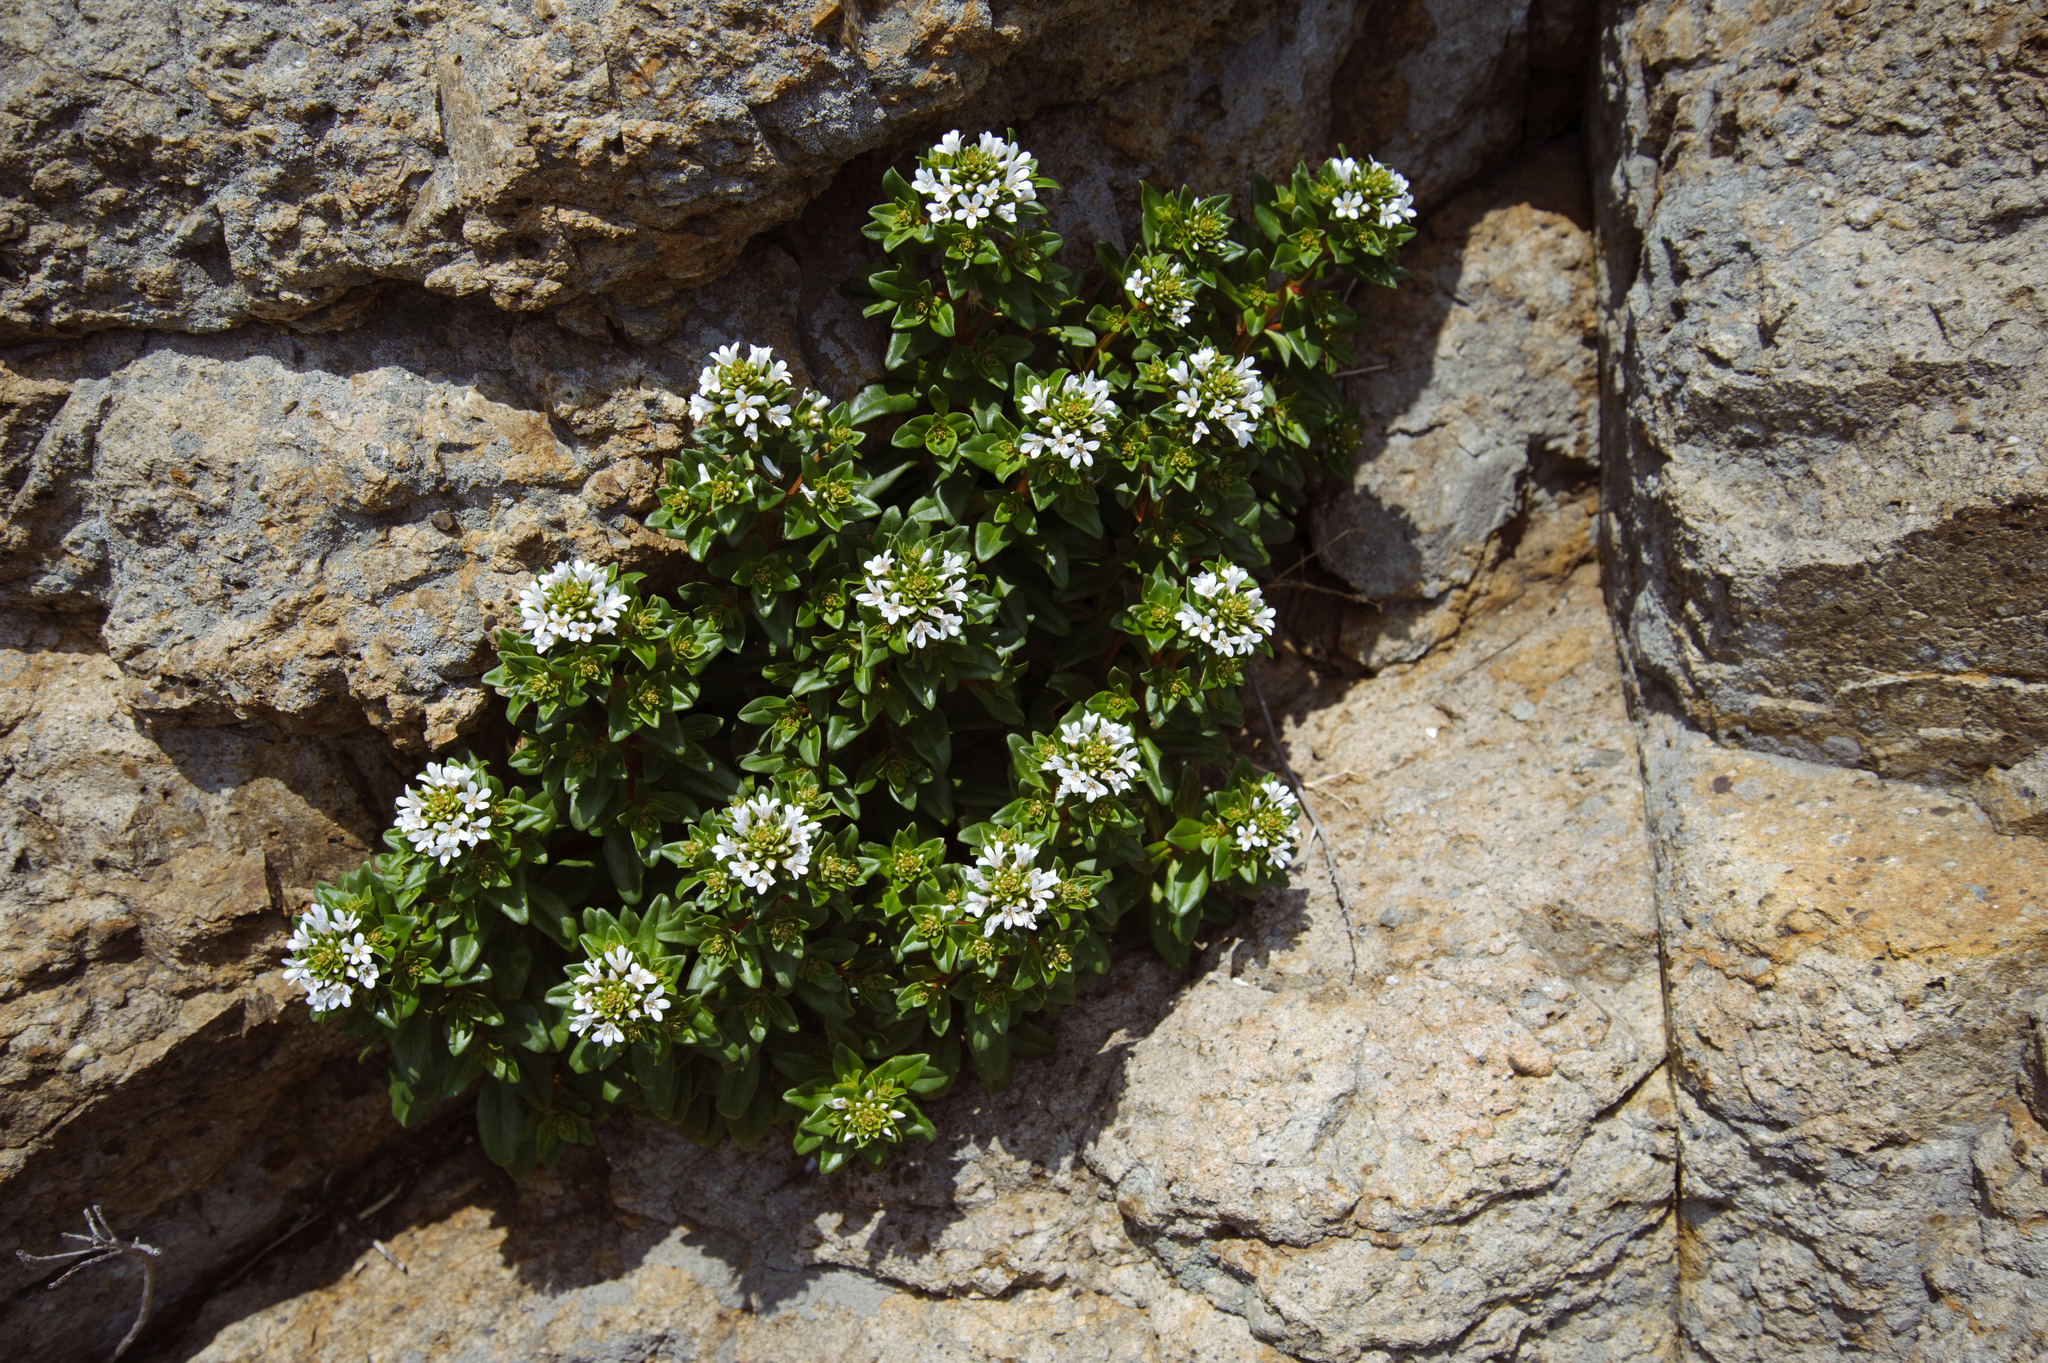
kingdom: Plantae
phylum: Tracheophyta
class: Magnoliopsida
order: Ericales
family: Primulaceae
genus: Lysimachia
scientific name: Lysimachia mauritiana
